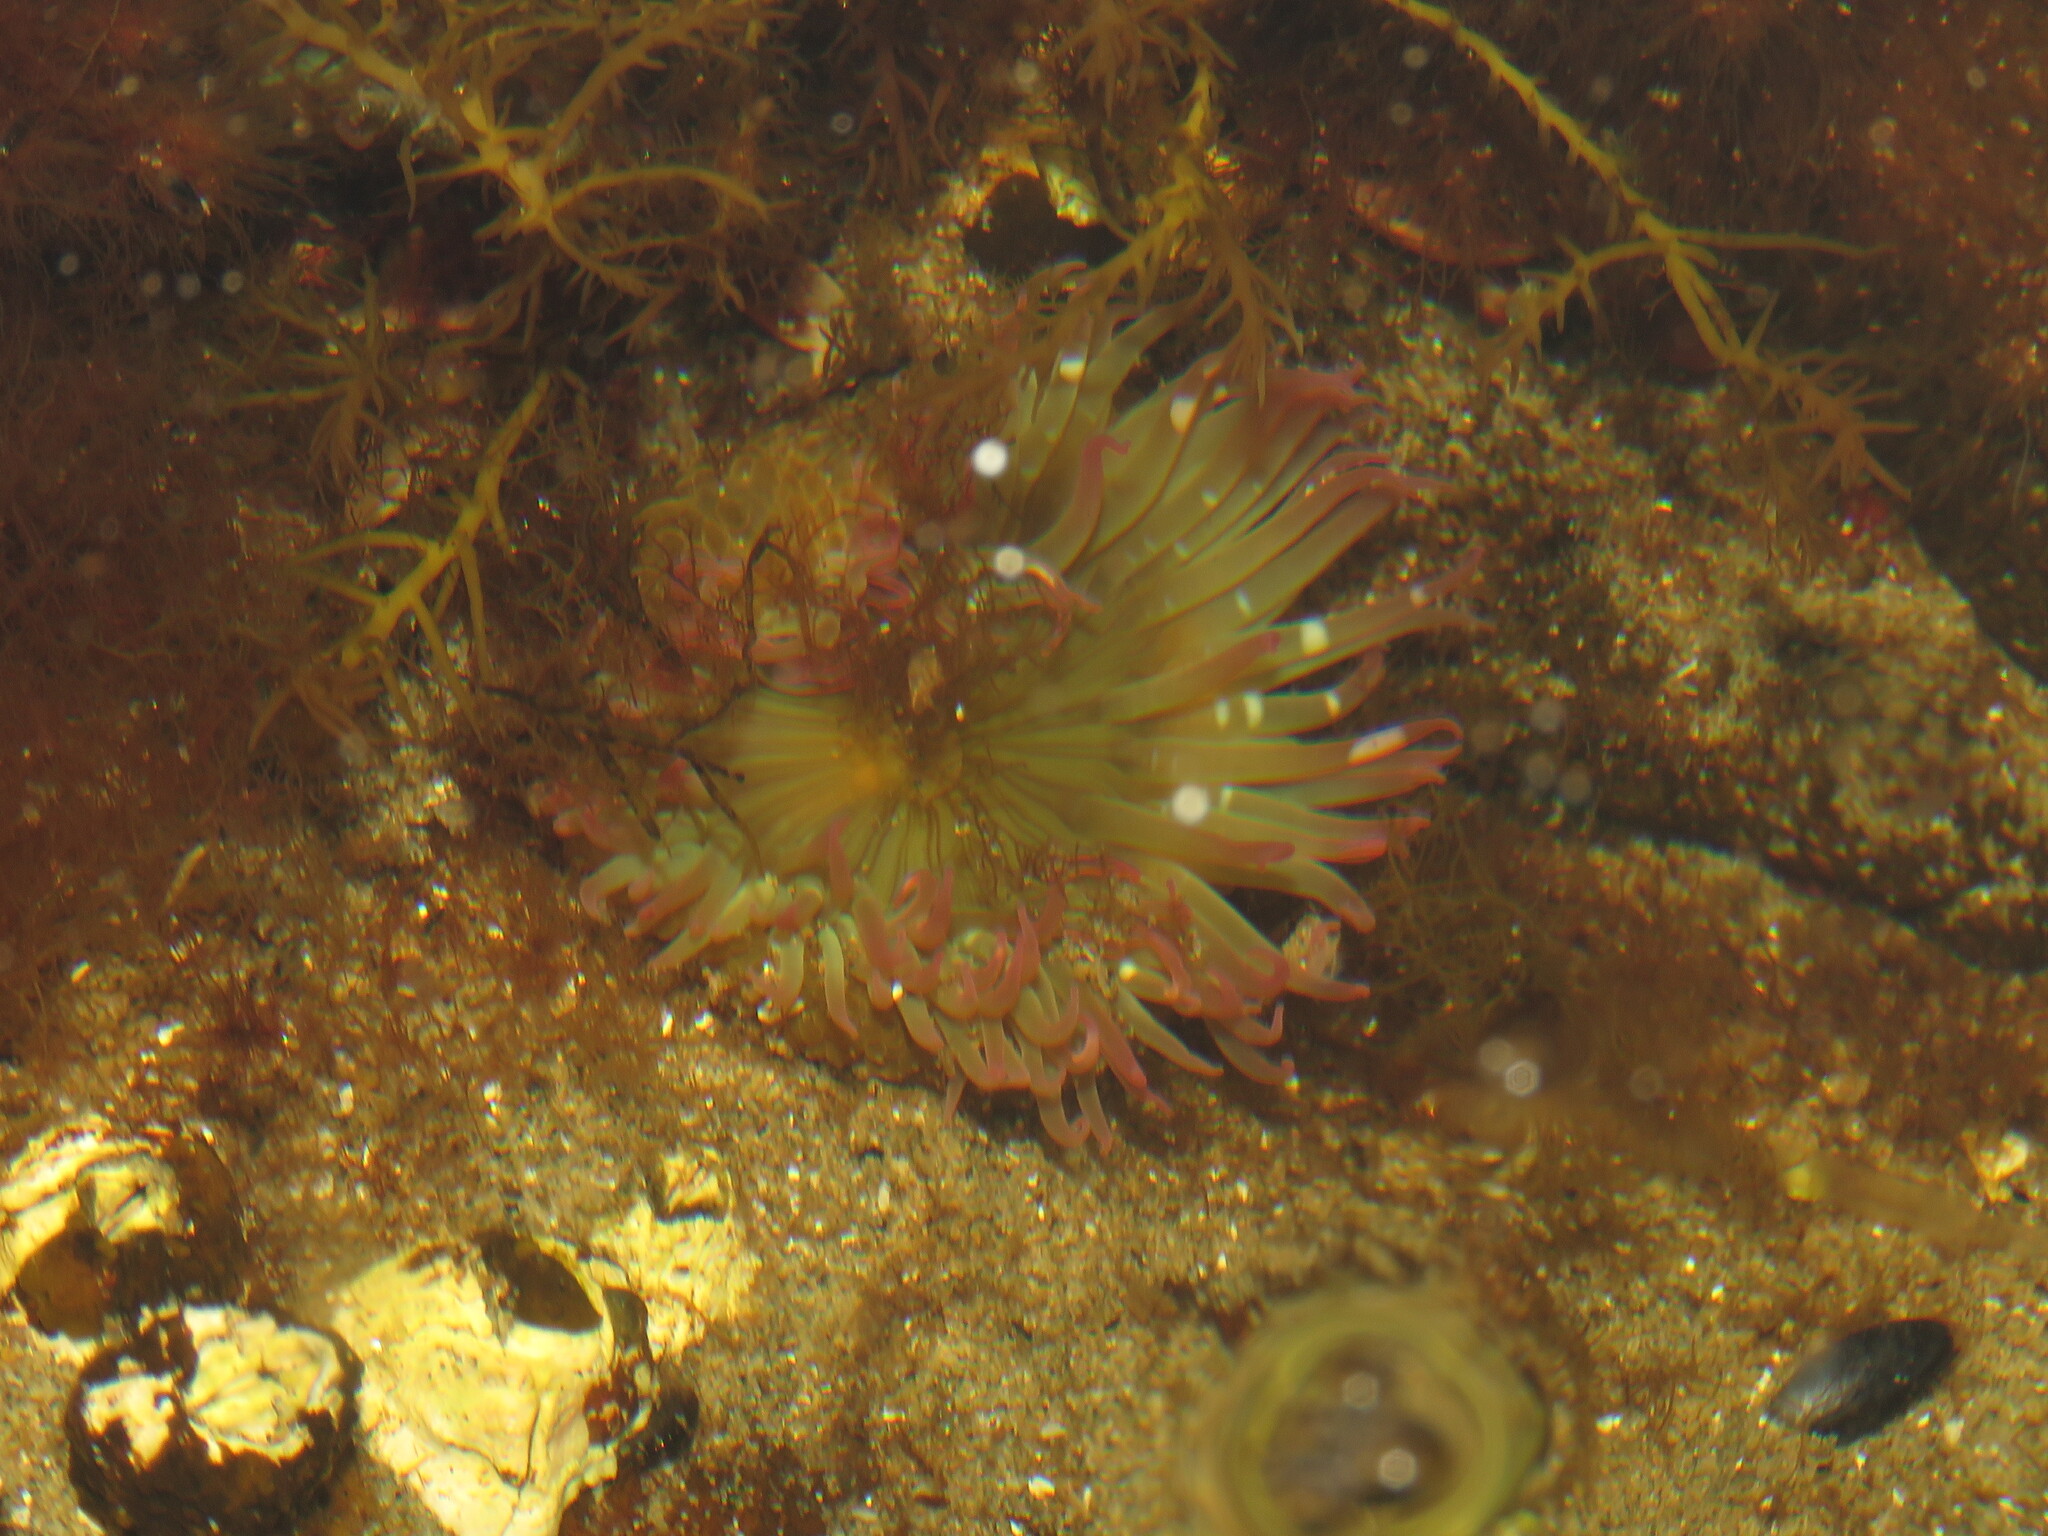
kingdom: Animalia
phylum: Cnidaria
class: Anthozoa
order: Actiniaria
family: Actiniidae
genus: Anthopleura
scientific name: Anthopleura elegantissima
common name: Clonal anemone
